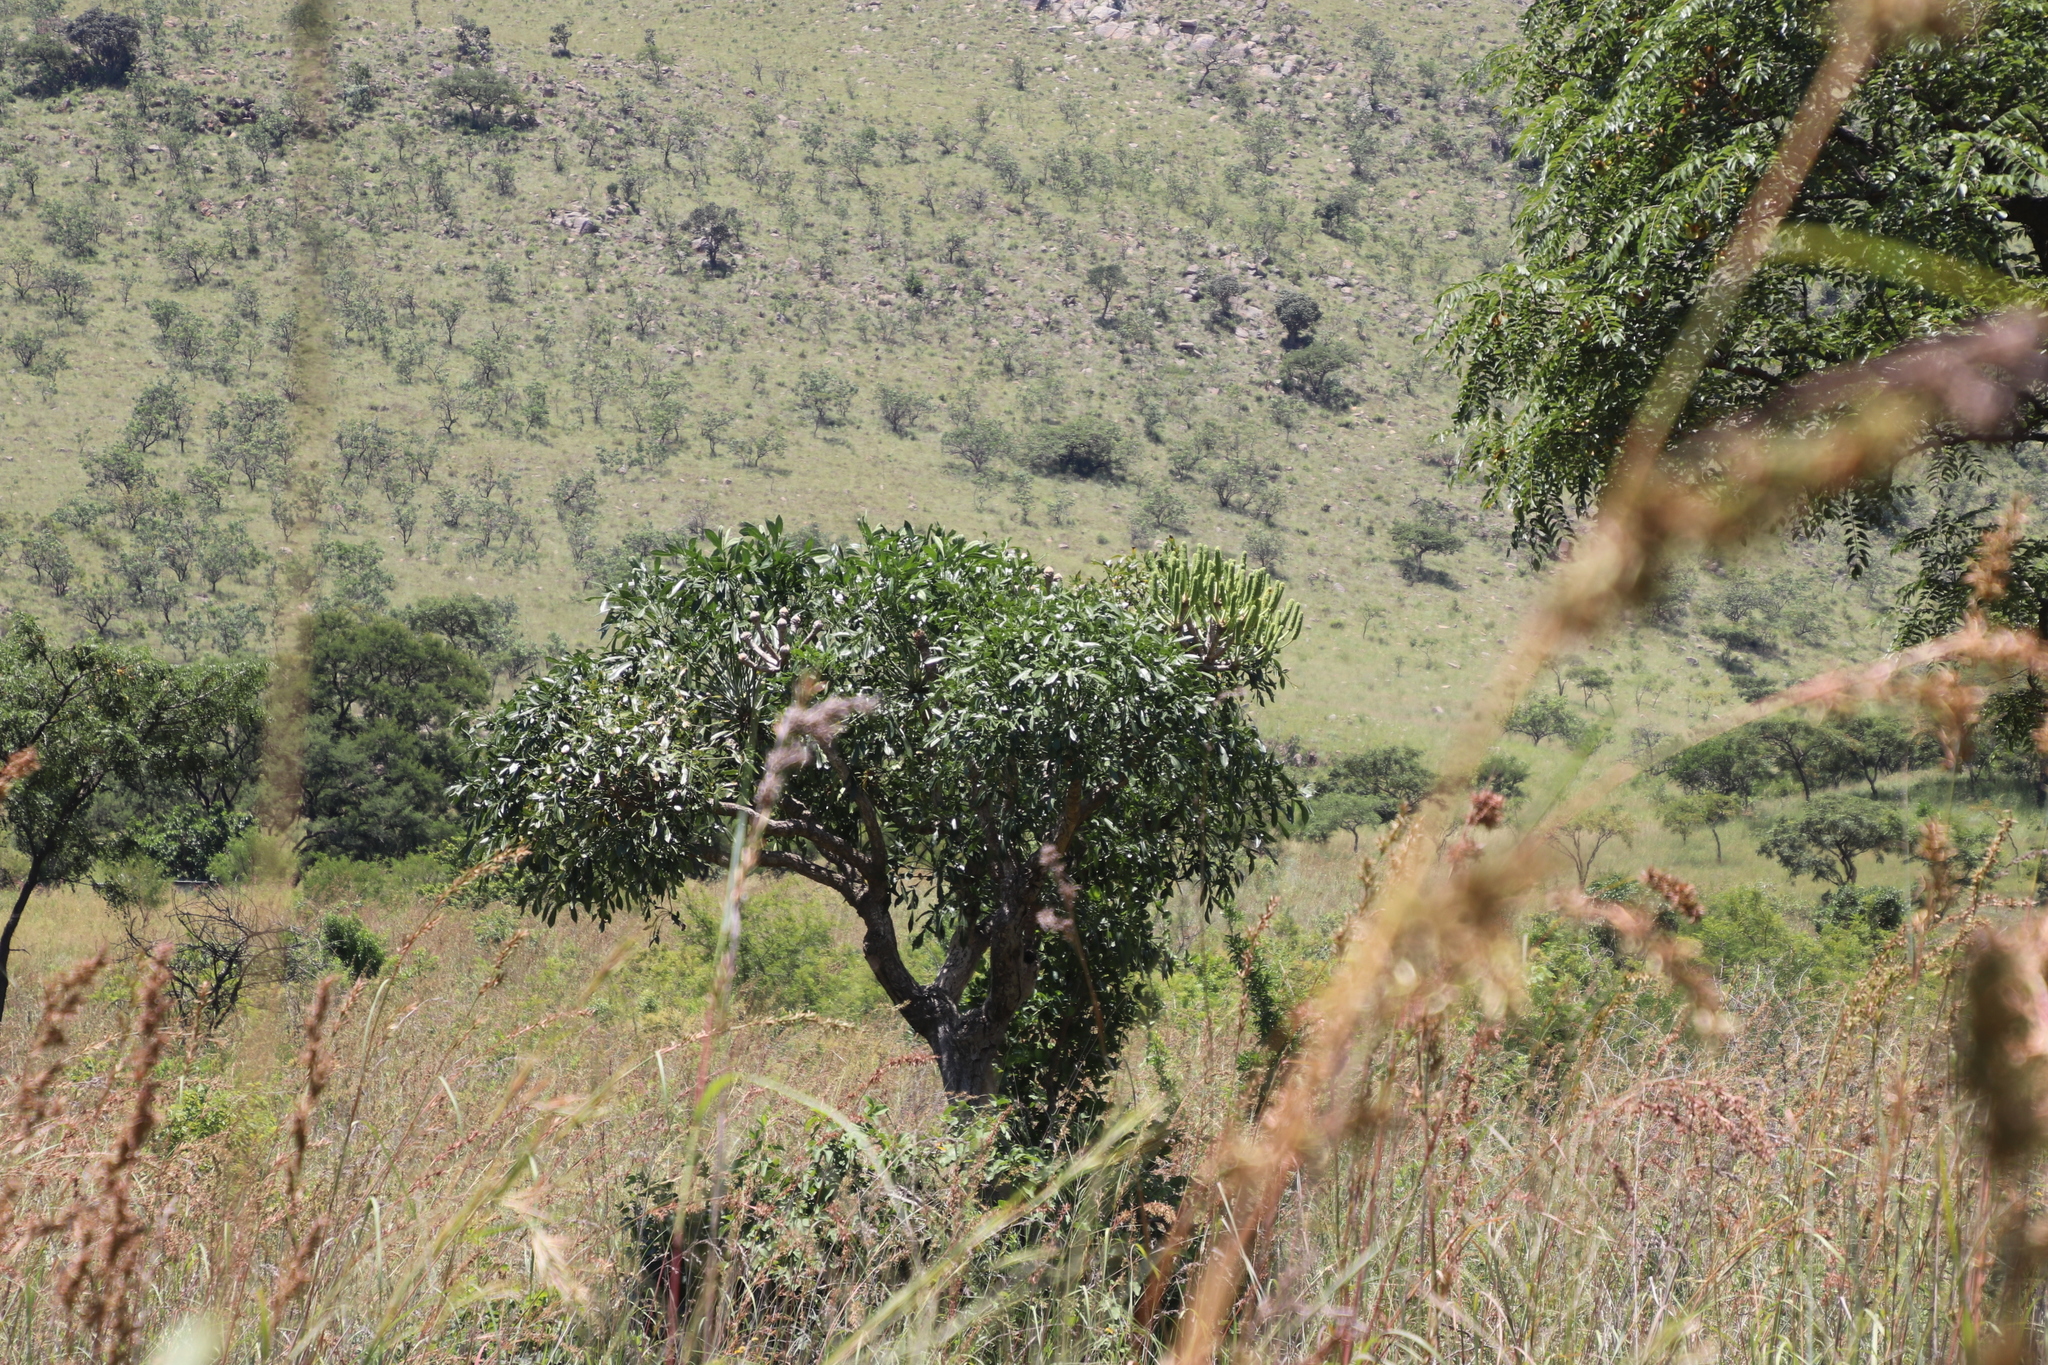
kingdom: Plantae
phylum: Tracheophyta
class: Magnoliopsida
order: Apiales
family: Araliaceae
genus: Cussonia
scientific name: Cussonia spicata
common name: Common cabbagetree
